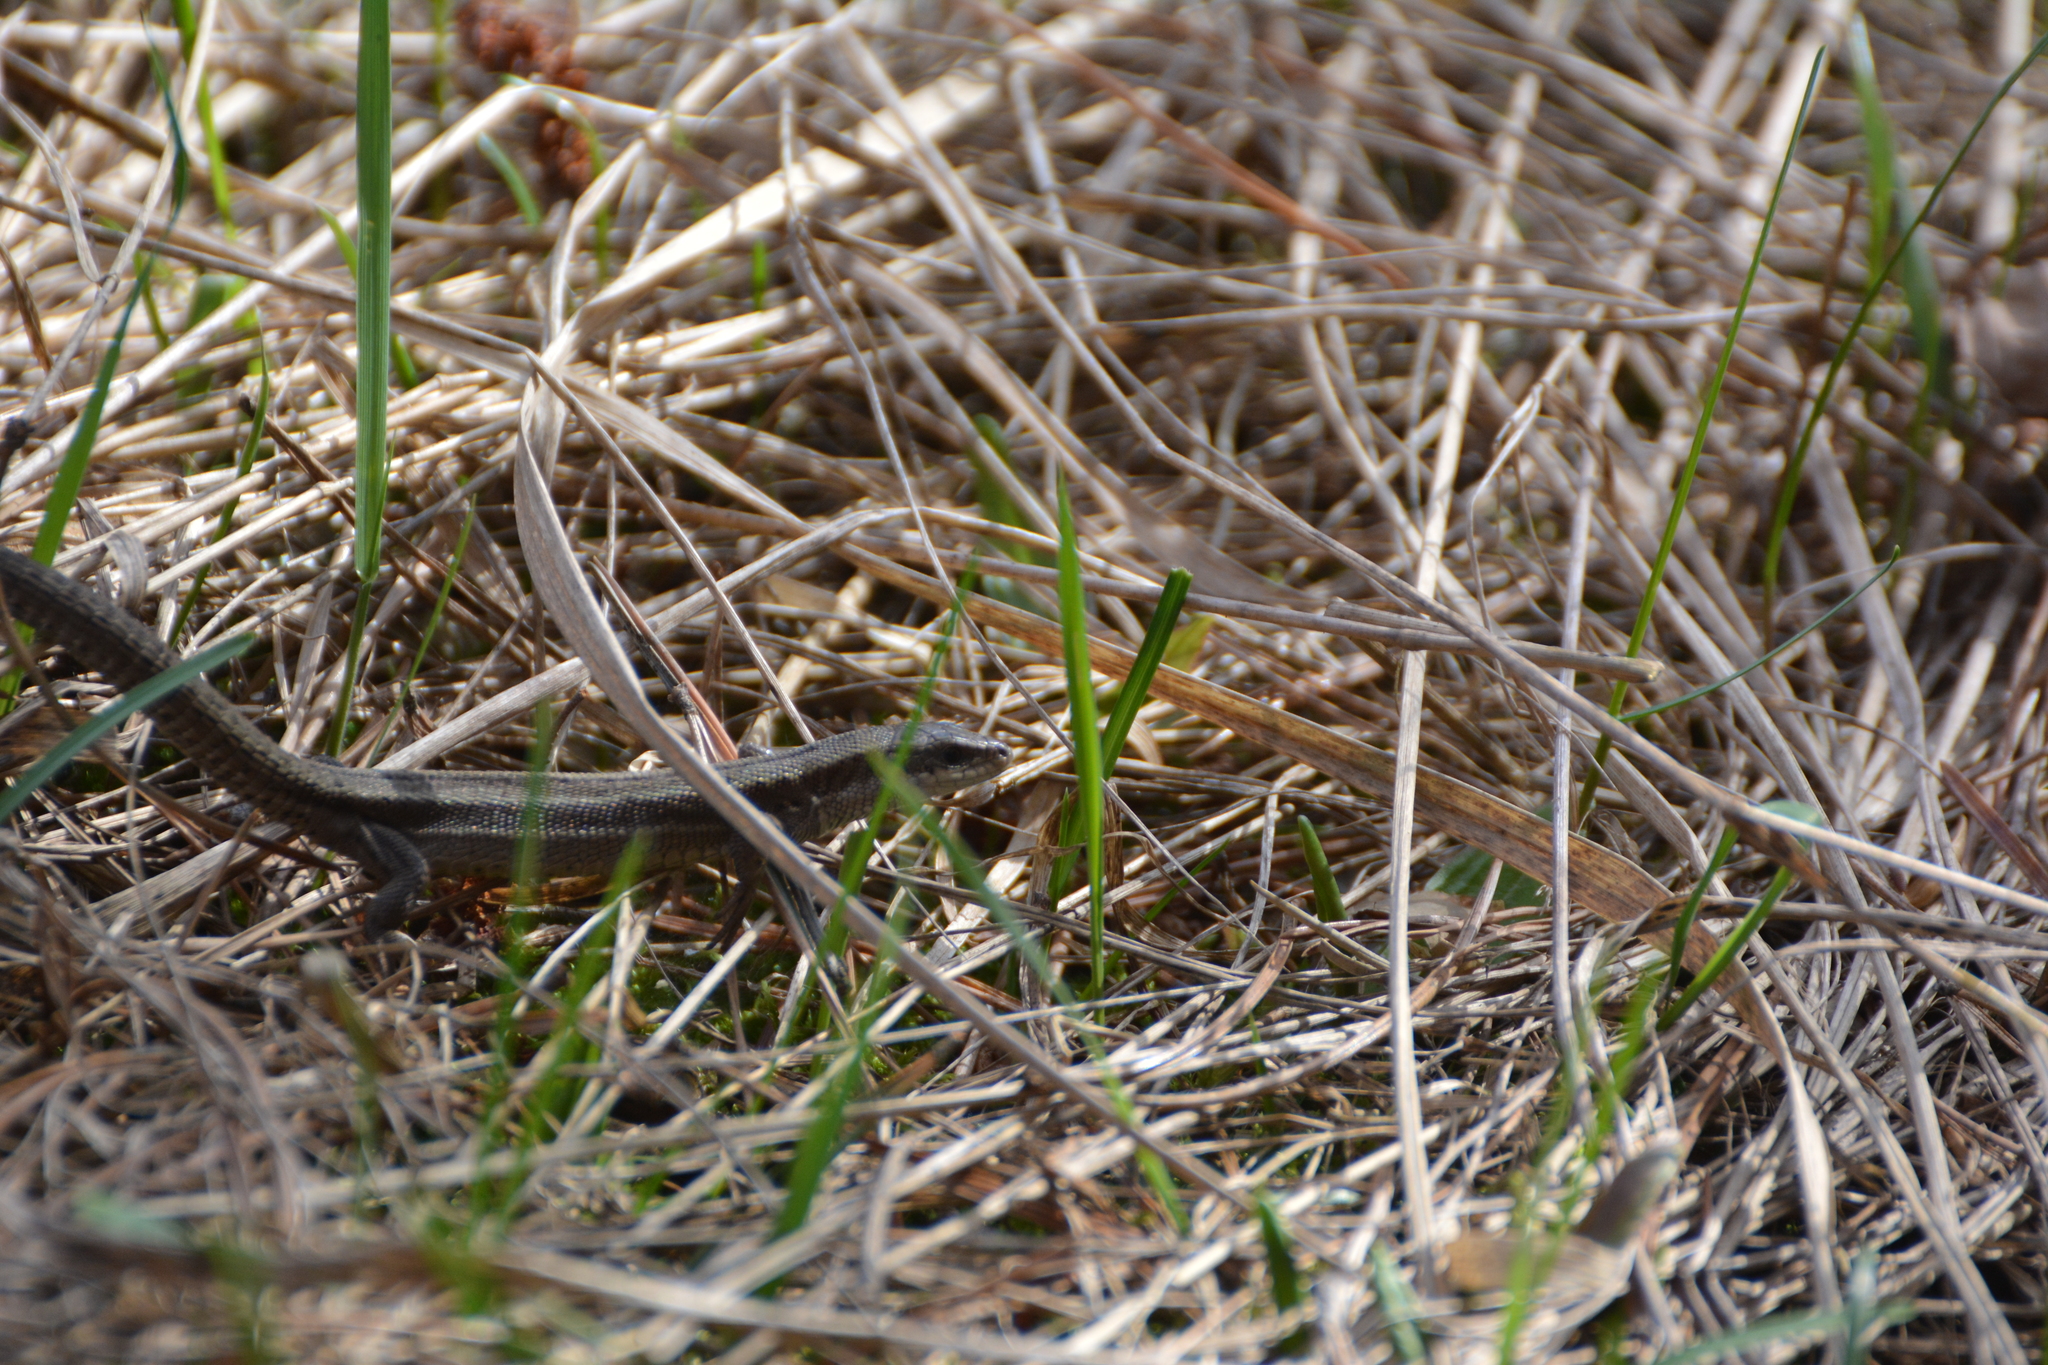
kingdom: Animalia
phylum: Chordata
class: Squamata
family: Lacertidae
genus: Zootoca
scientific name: Zootoca vivipara
